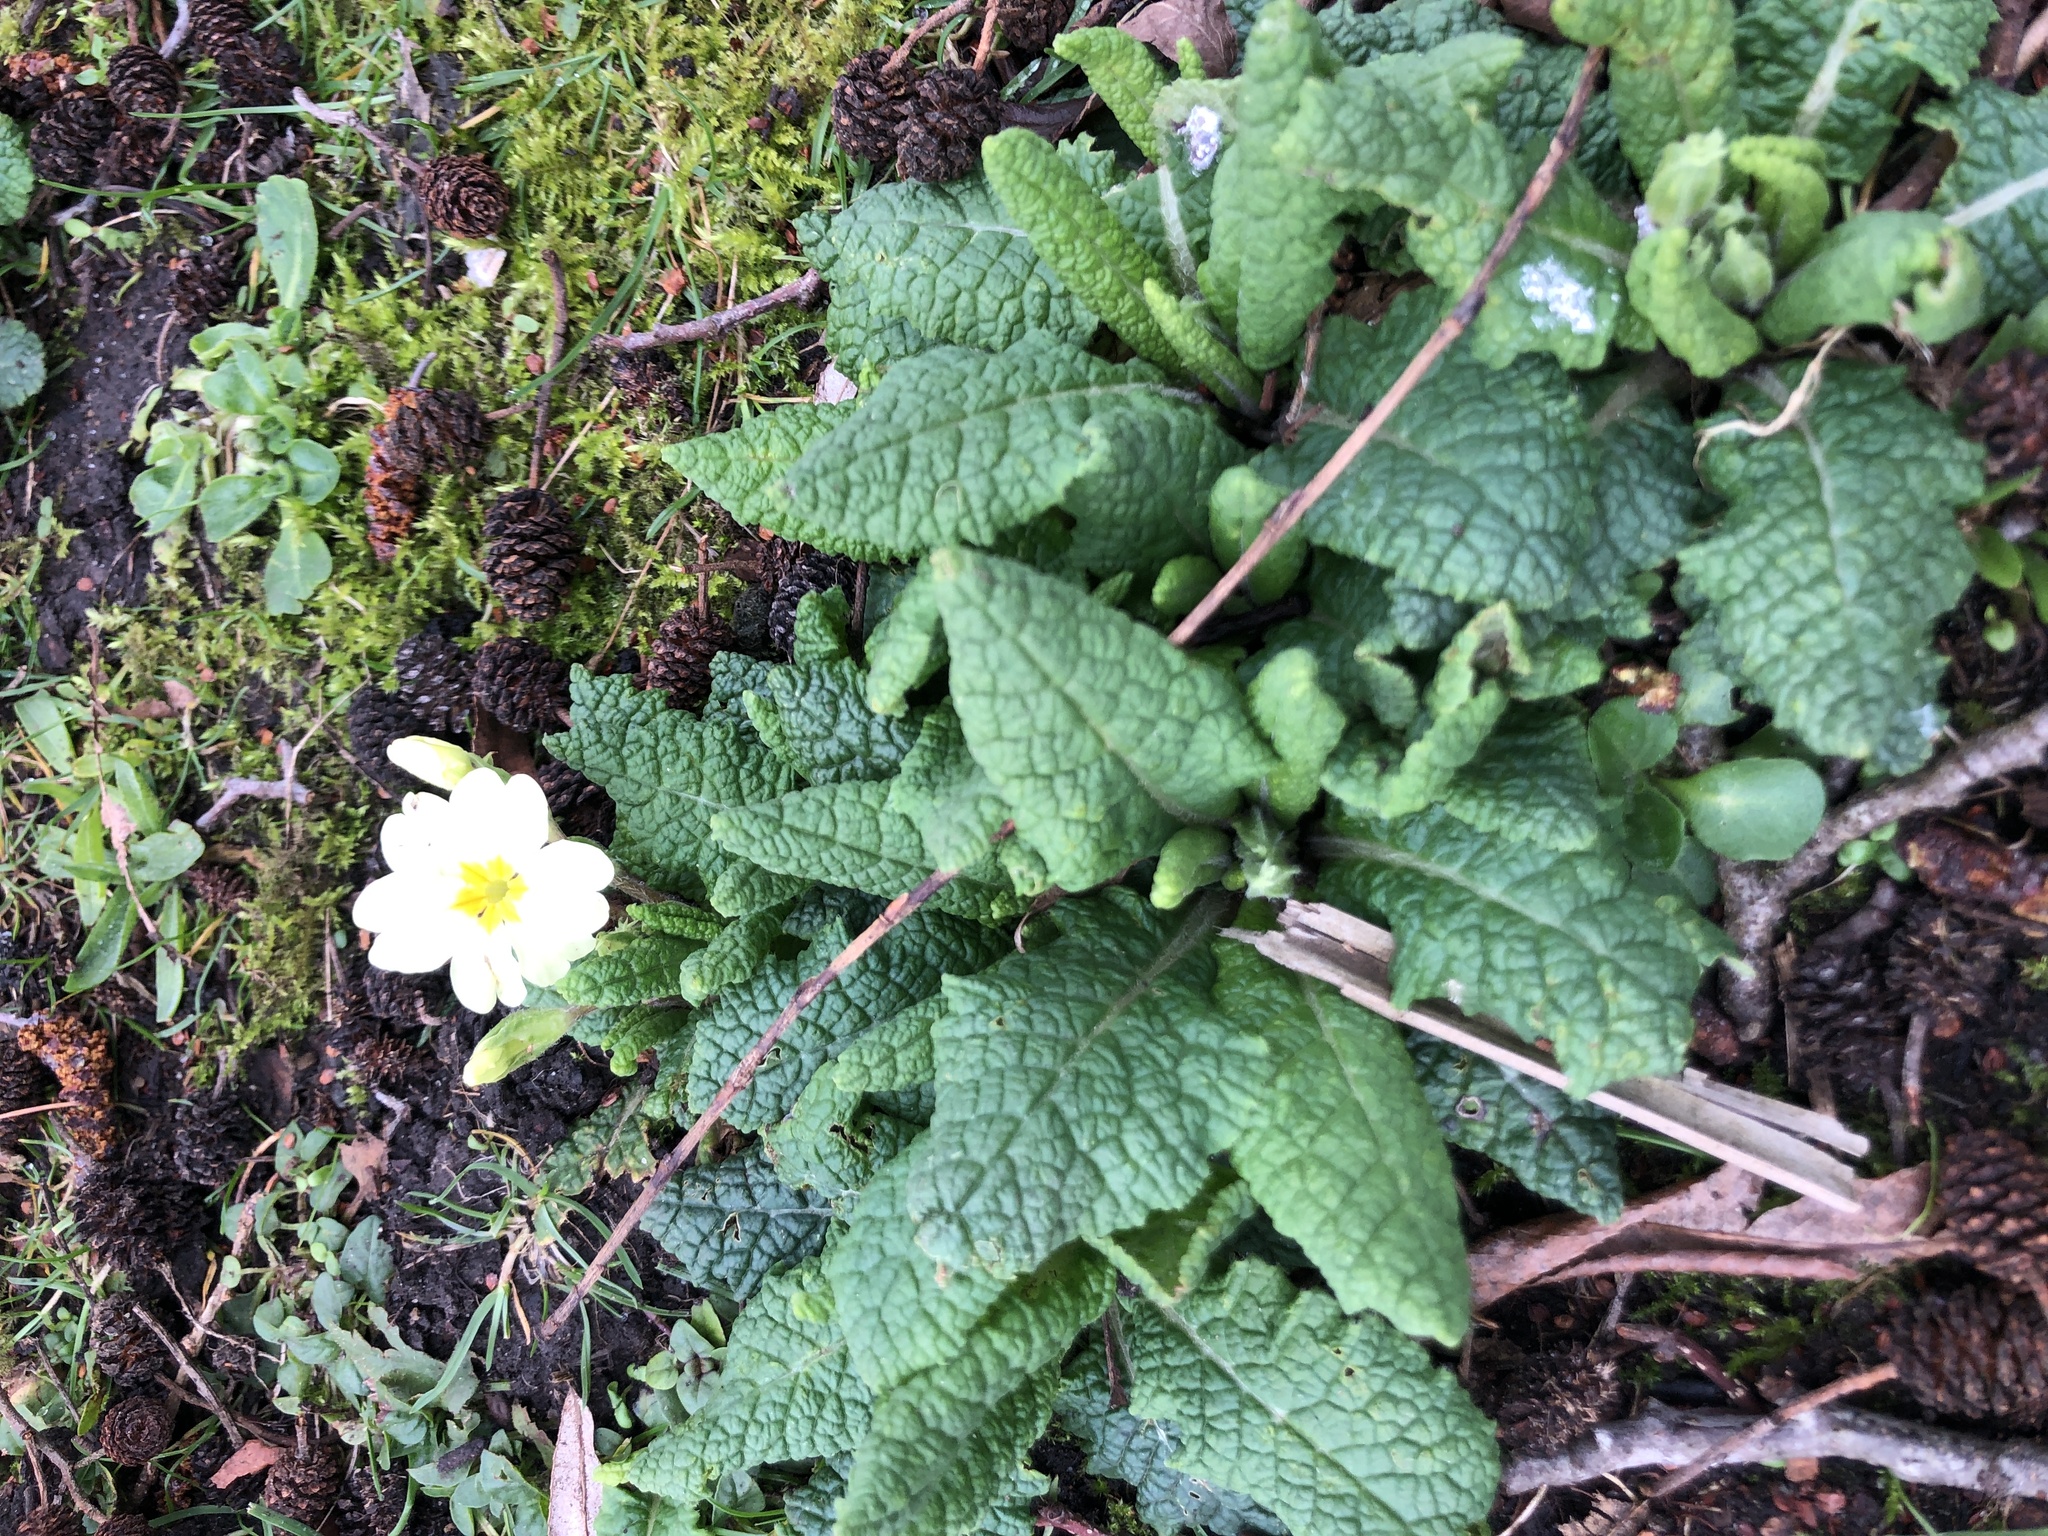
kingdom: Plantae
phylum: Tracheophyta
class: Magnoliopsida
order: Ericales
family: Primulaceae
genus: Primula
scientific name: Primula vulgaris
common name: Primrose
